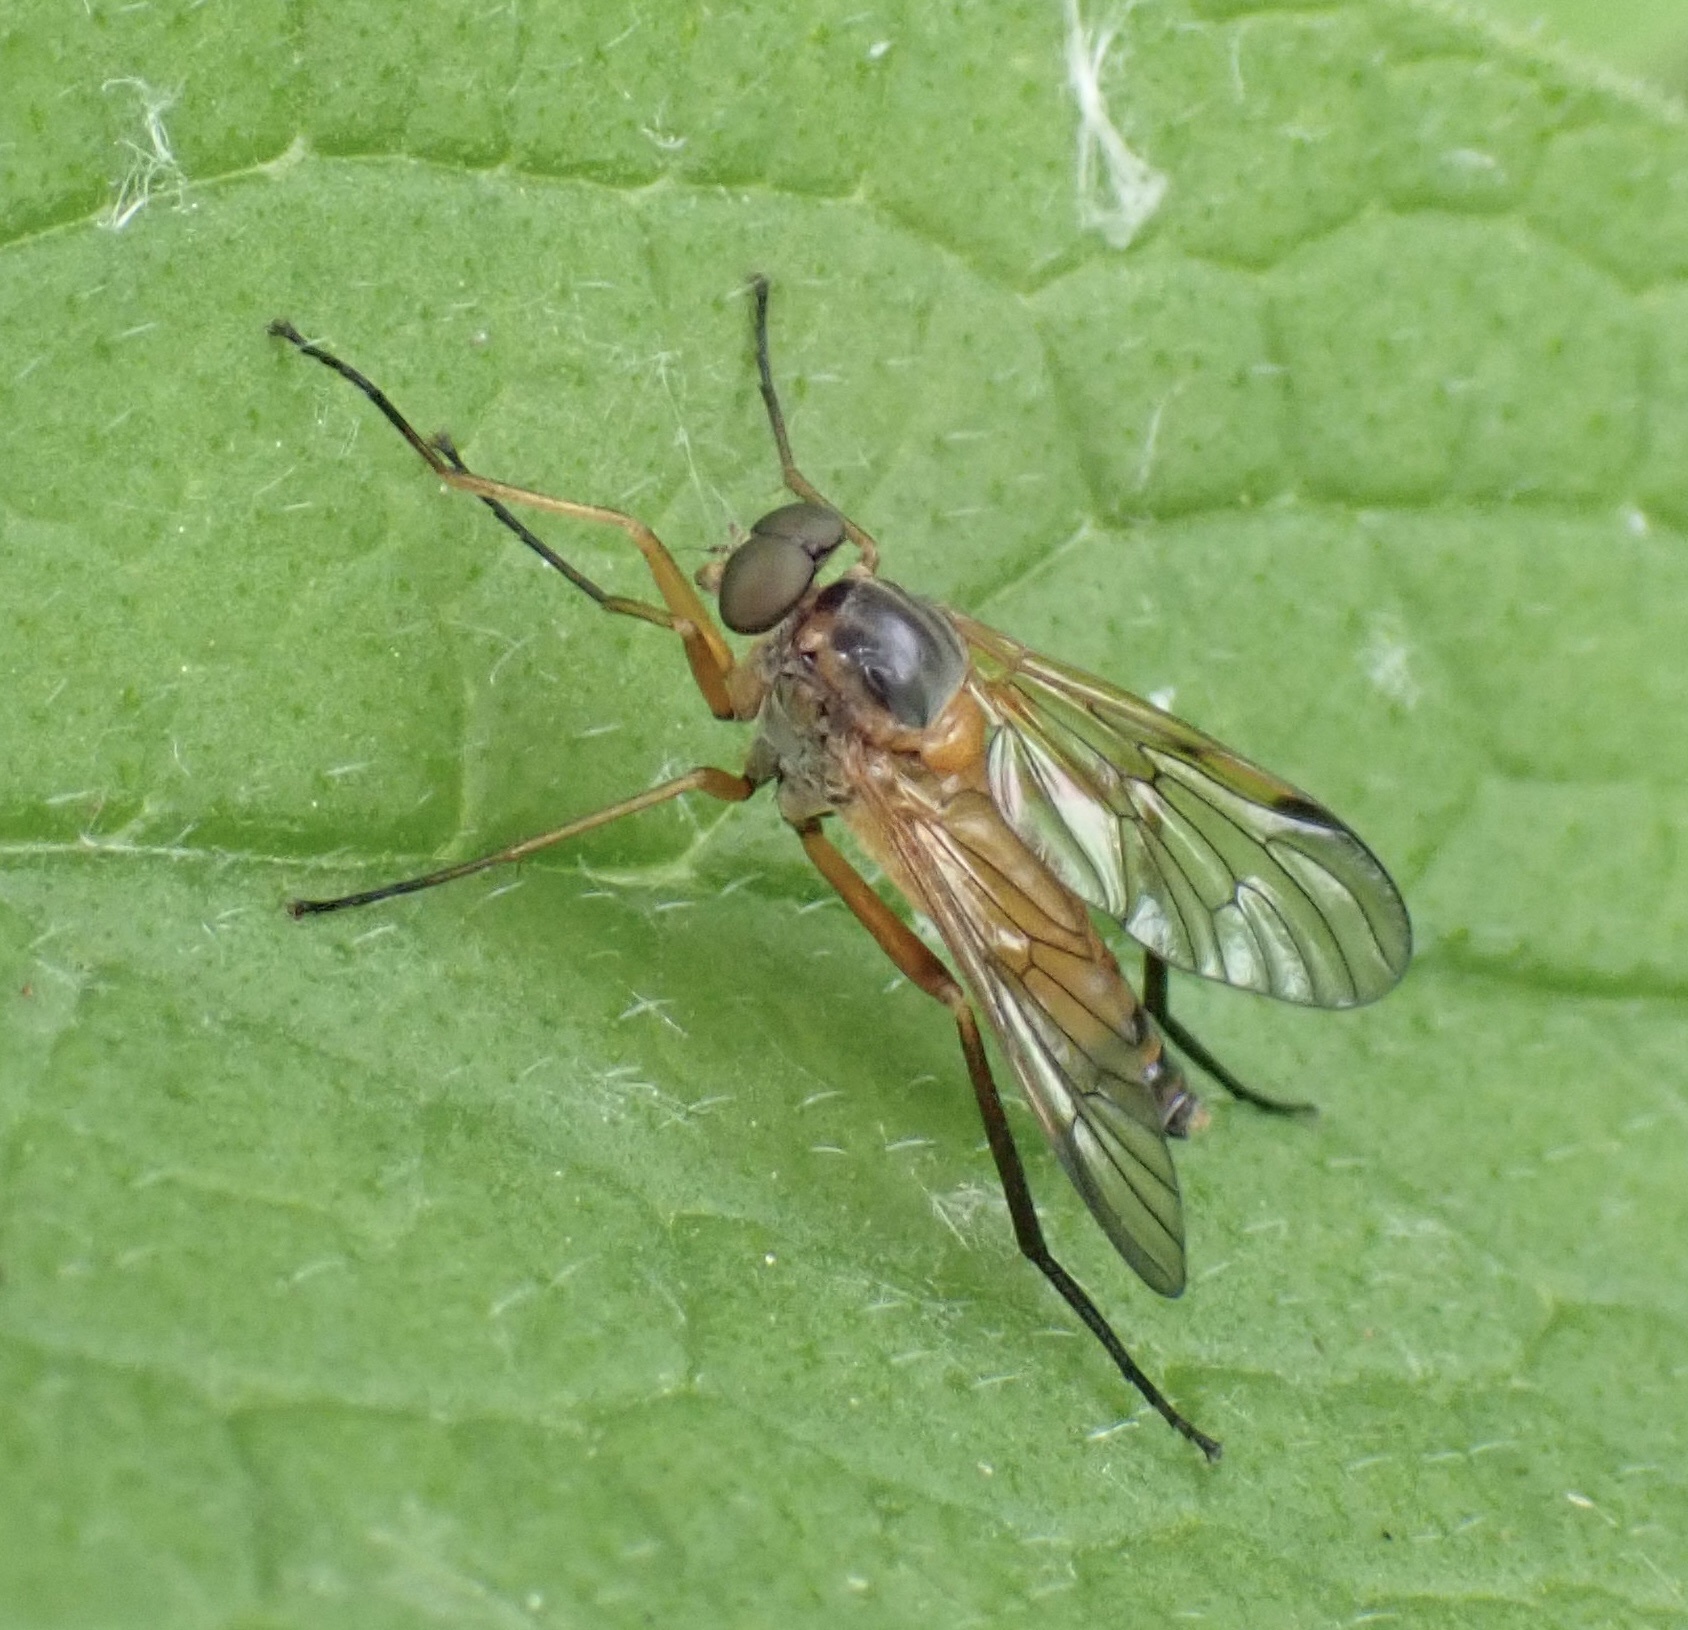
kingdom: Animalia
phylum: Arthropoda
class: Insecta
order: Diptera
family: Rhagionidae
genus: Rhagio
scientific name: Rhagio immaculatus
